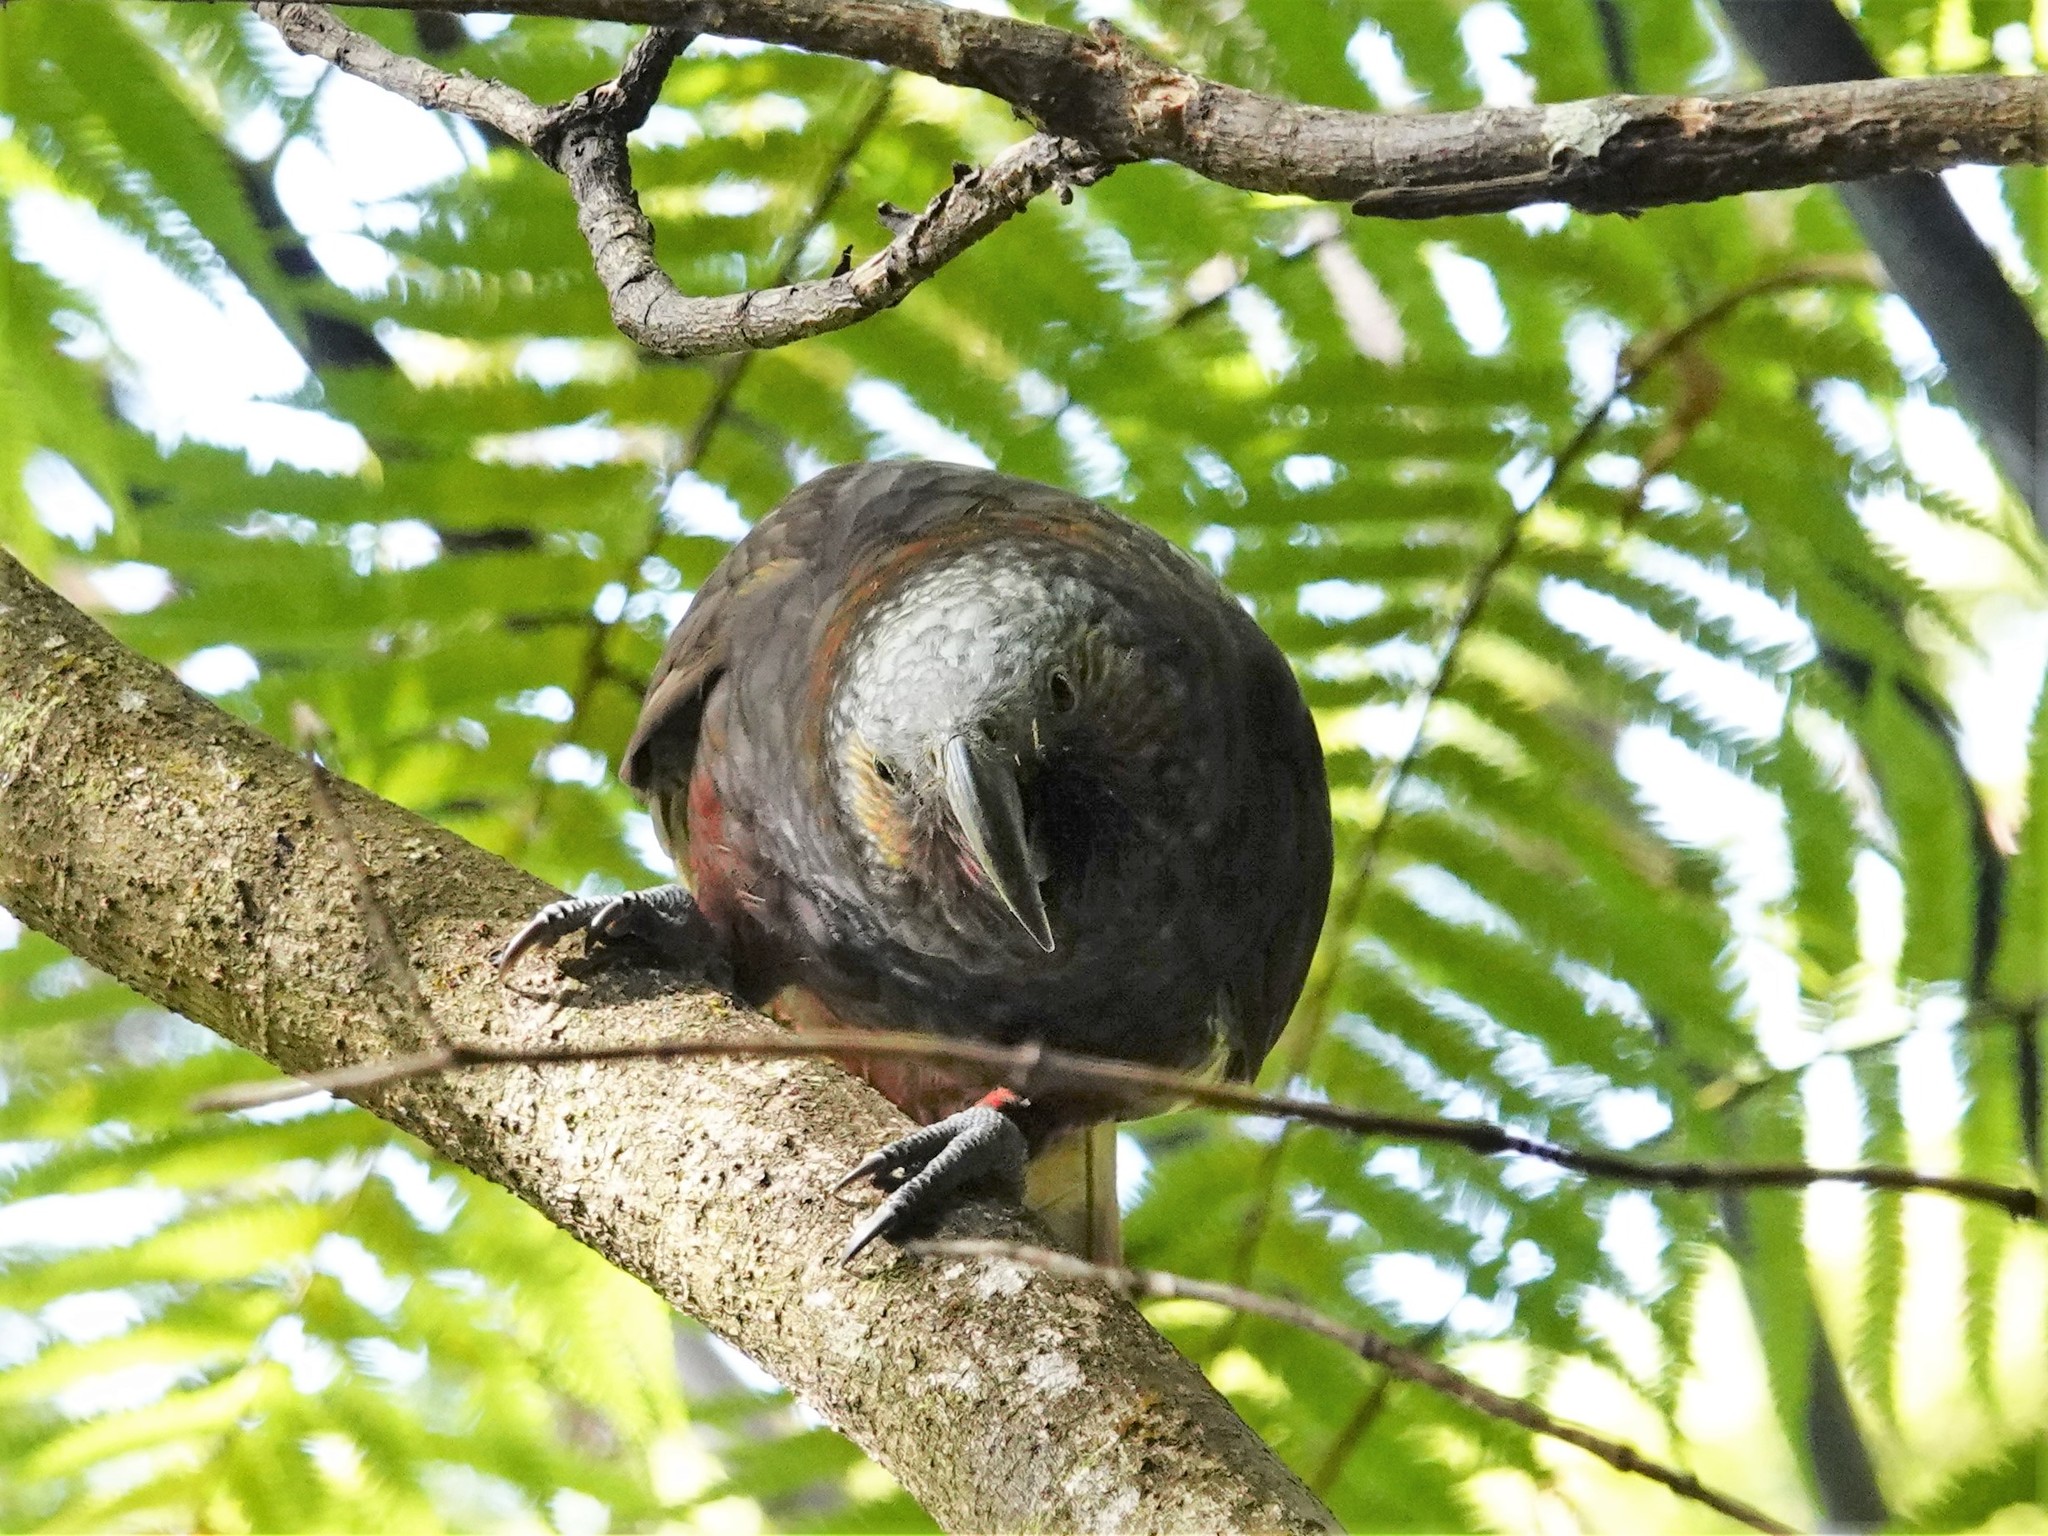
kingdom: Animalia
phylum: Chordata
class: Aves
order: Psittaciformes
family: Psittacidae
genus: Nestor
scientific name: Nestor meridionalis
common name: New zealand kaka
